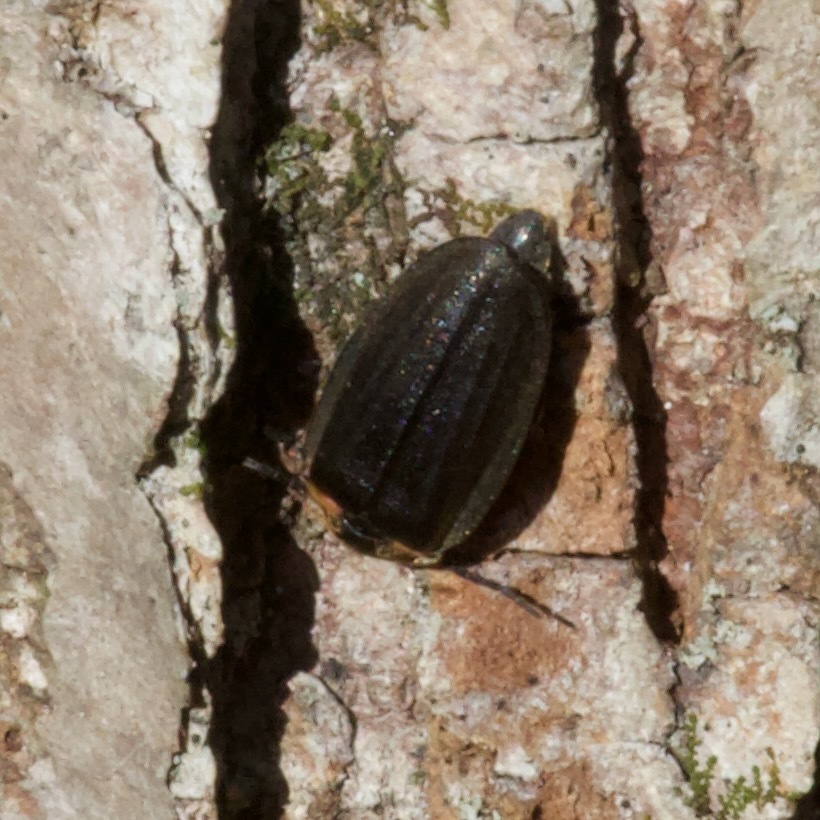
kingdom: Animalia
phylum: Arthropoda
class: Insecta
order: Coleoptera
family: Lampyridae
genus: Photinus
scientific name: Photinus corrusca
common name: Winter firefly
